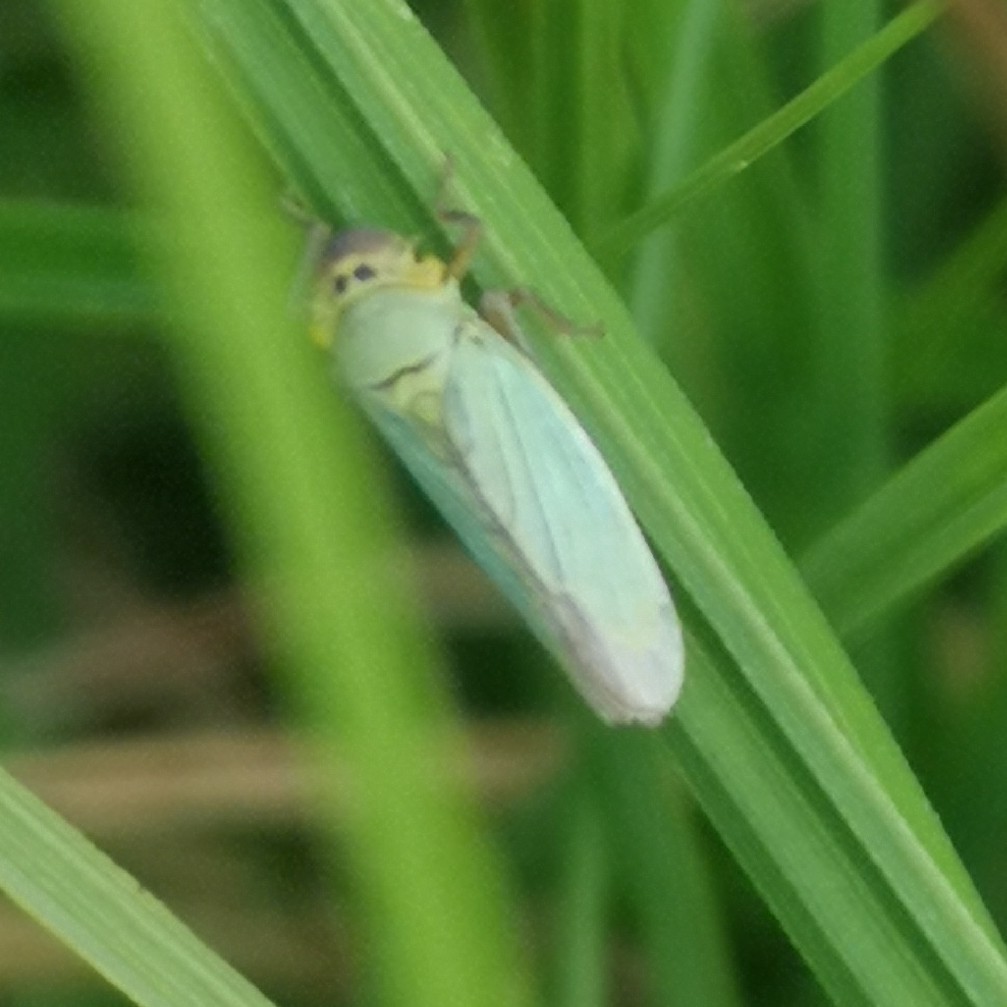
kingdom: Animalia
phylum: Arthropoda
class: Insecta
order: Hemiptera
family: Cicadellidae
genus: Cicadella
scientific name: Cicadella viridis
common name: Leafhopper
